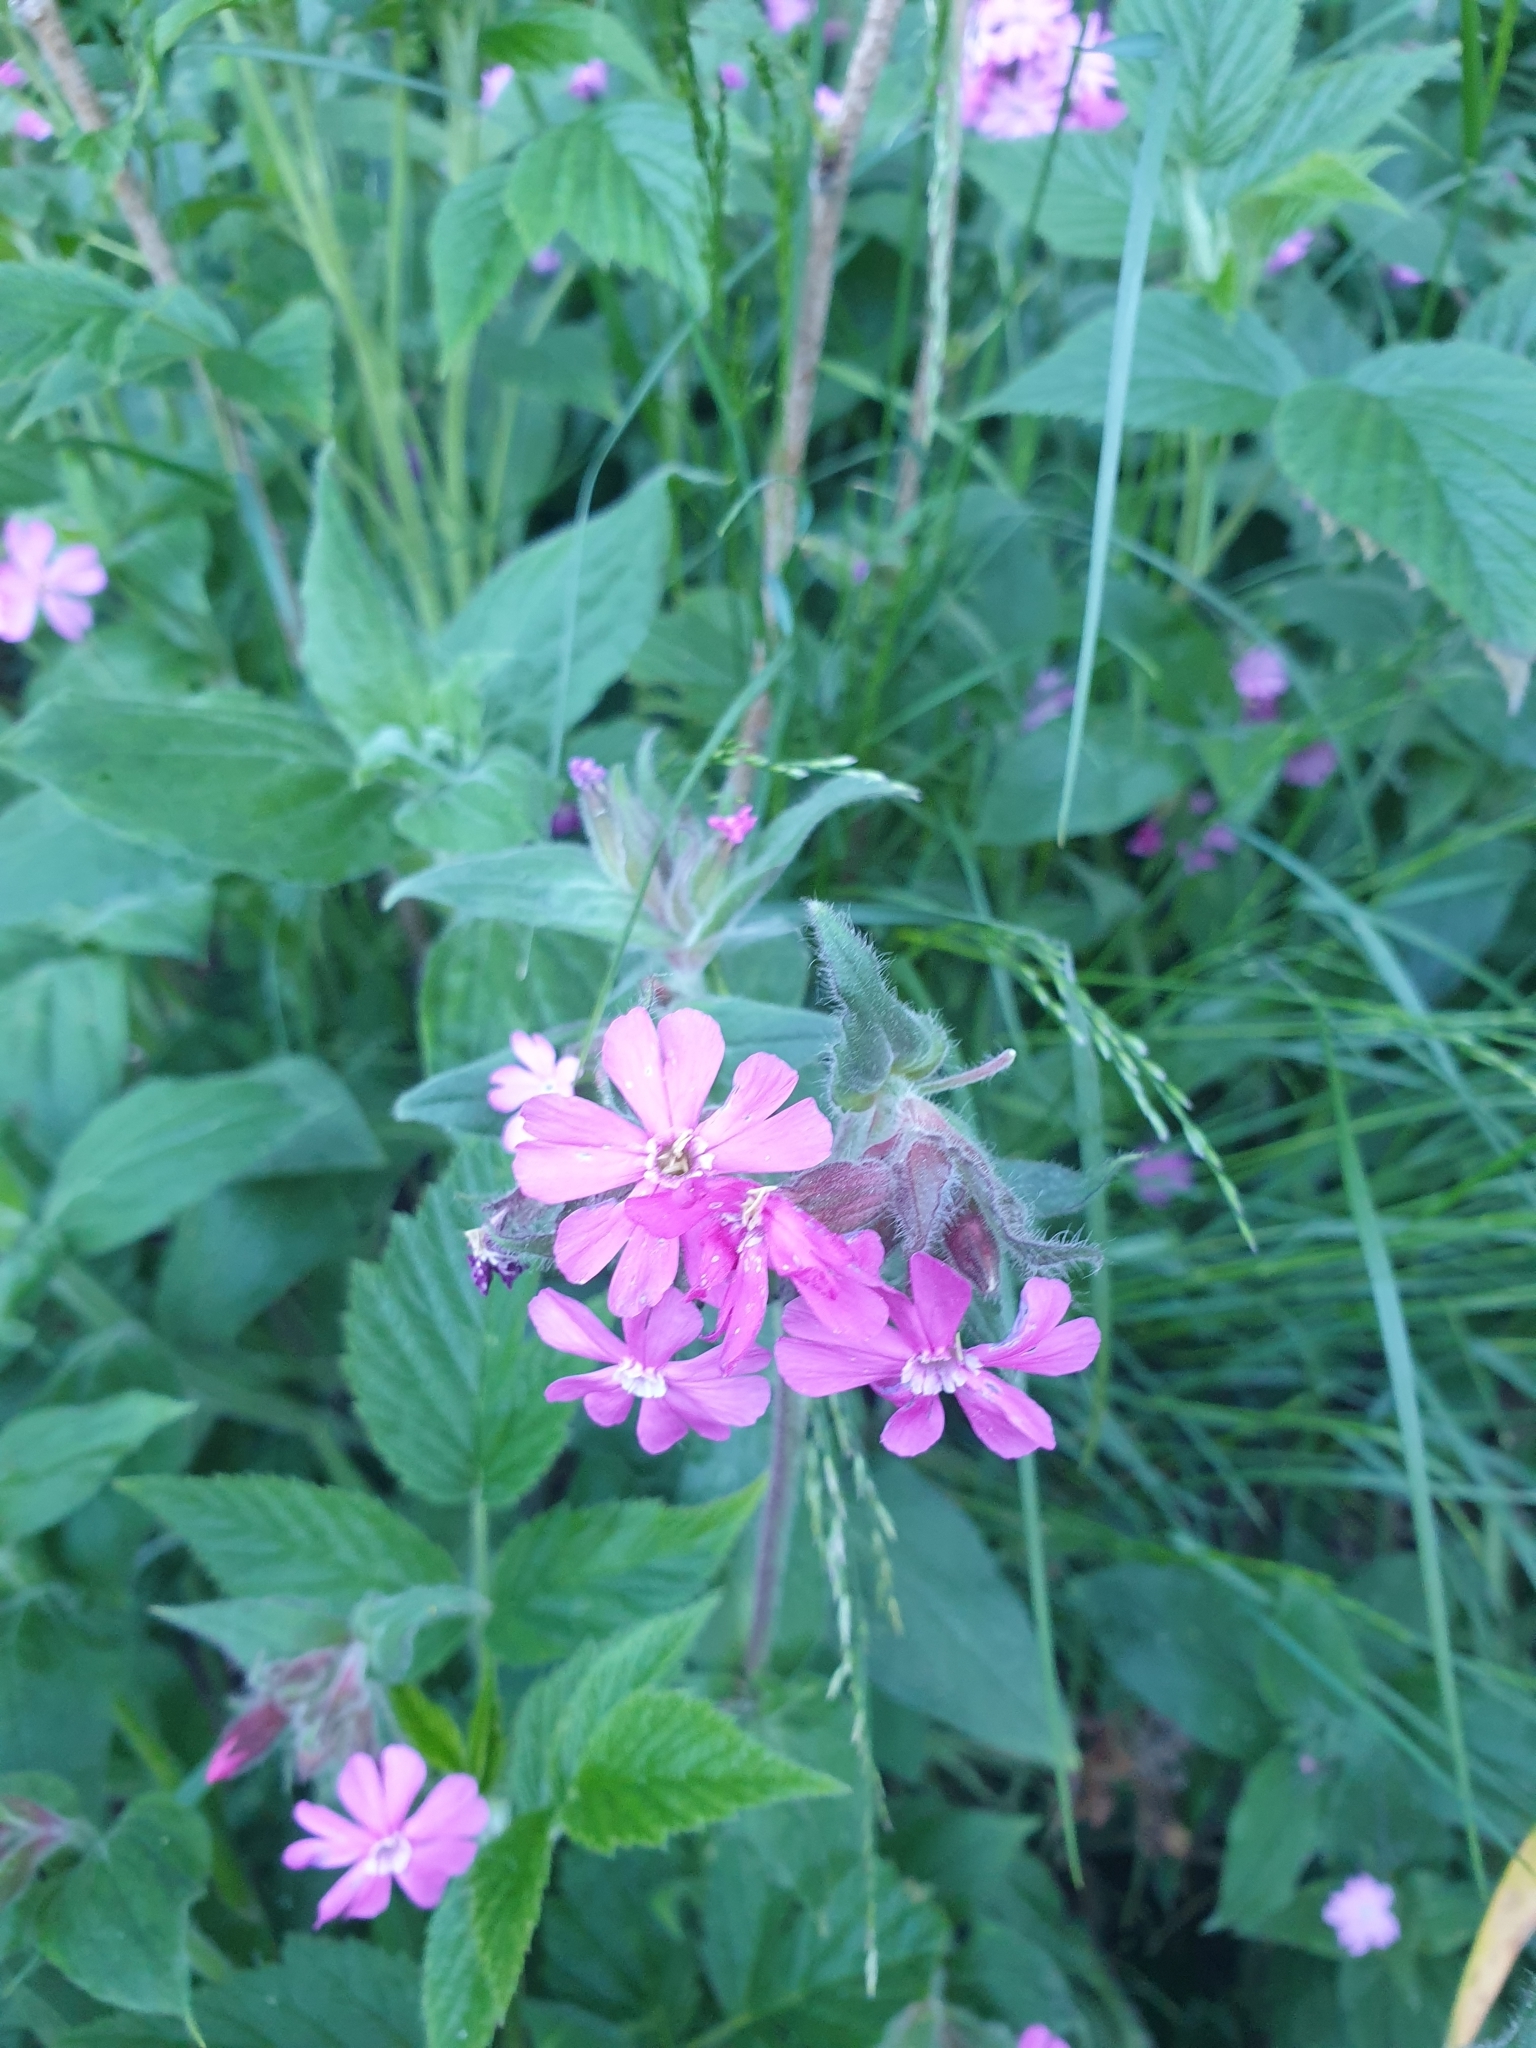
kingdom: Plantae
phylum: Tracheophyta
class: Magnoliopsida
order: Caryophyllales
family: Caryophyllaceae
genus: Silene
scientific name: Silene dioica
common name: Red campion
